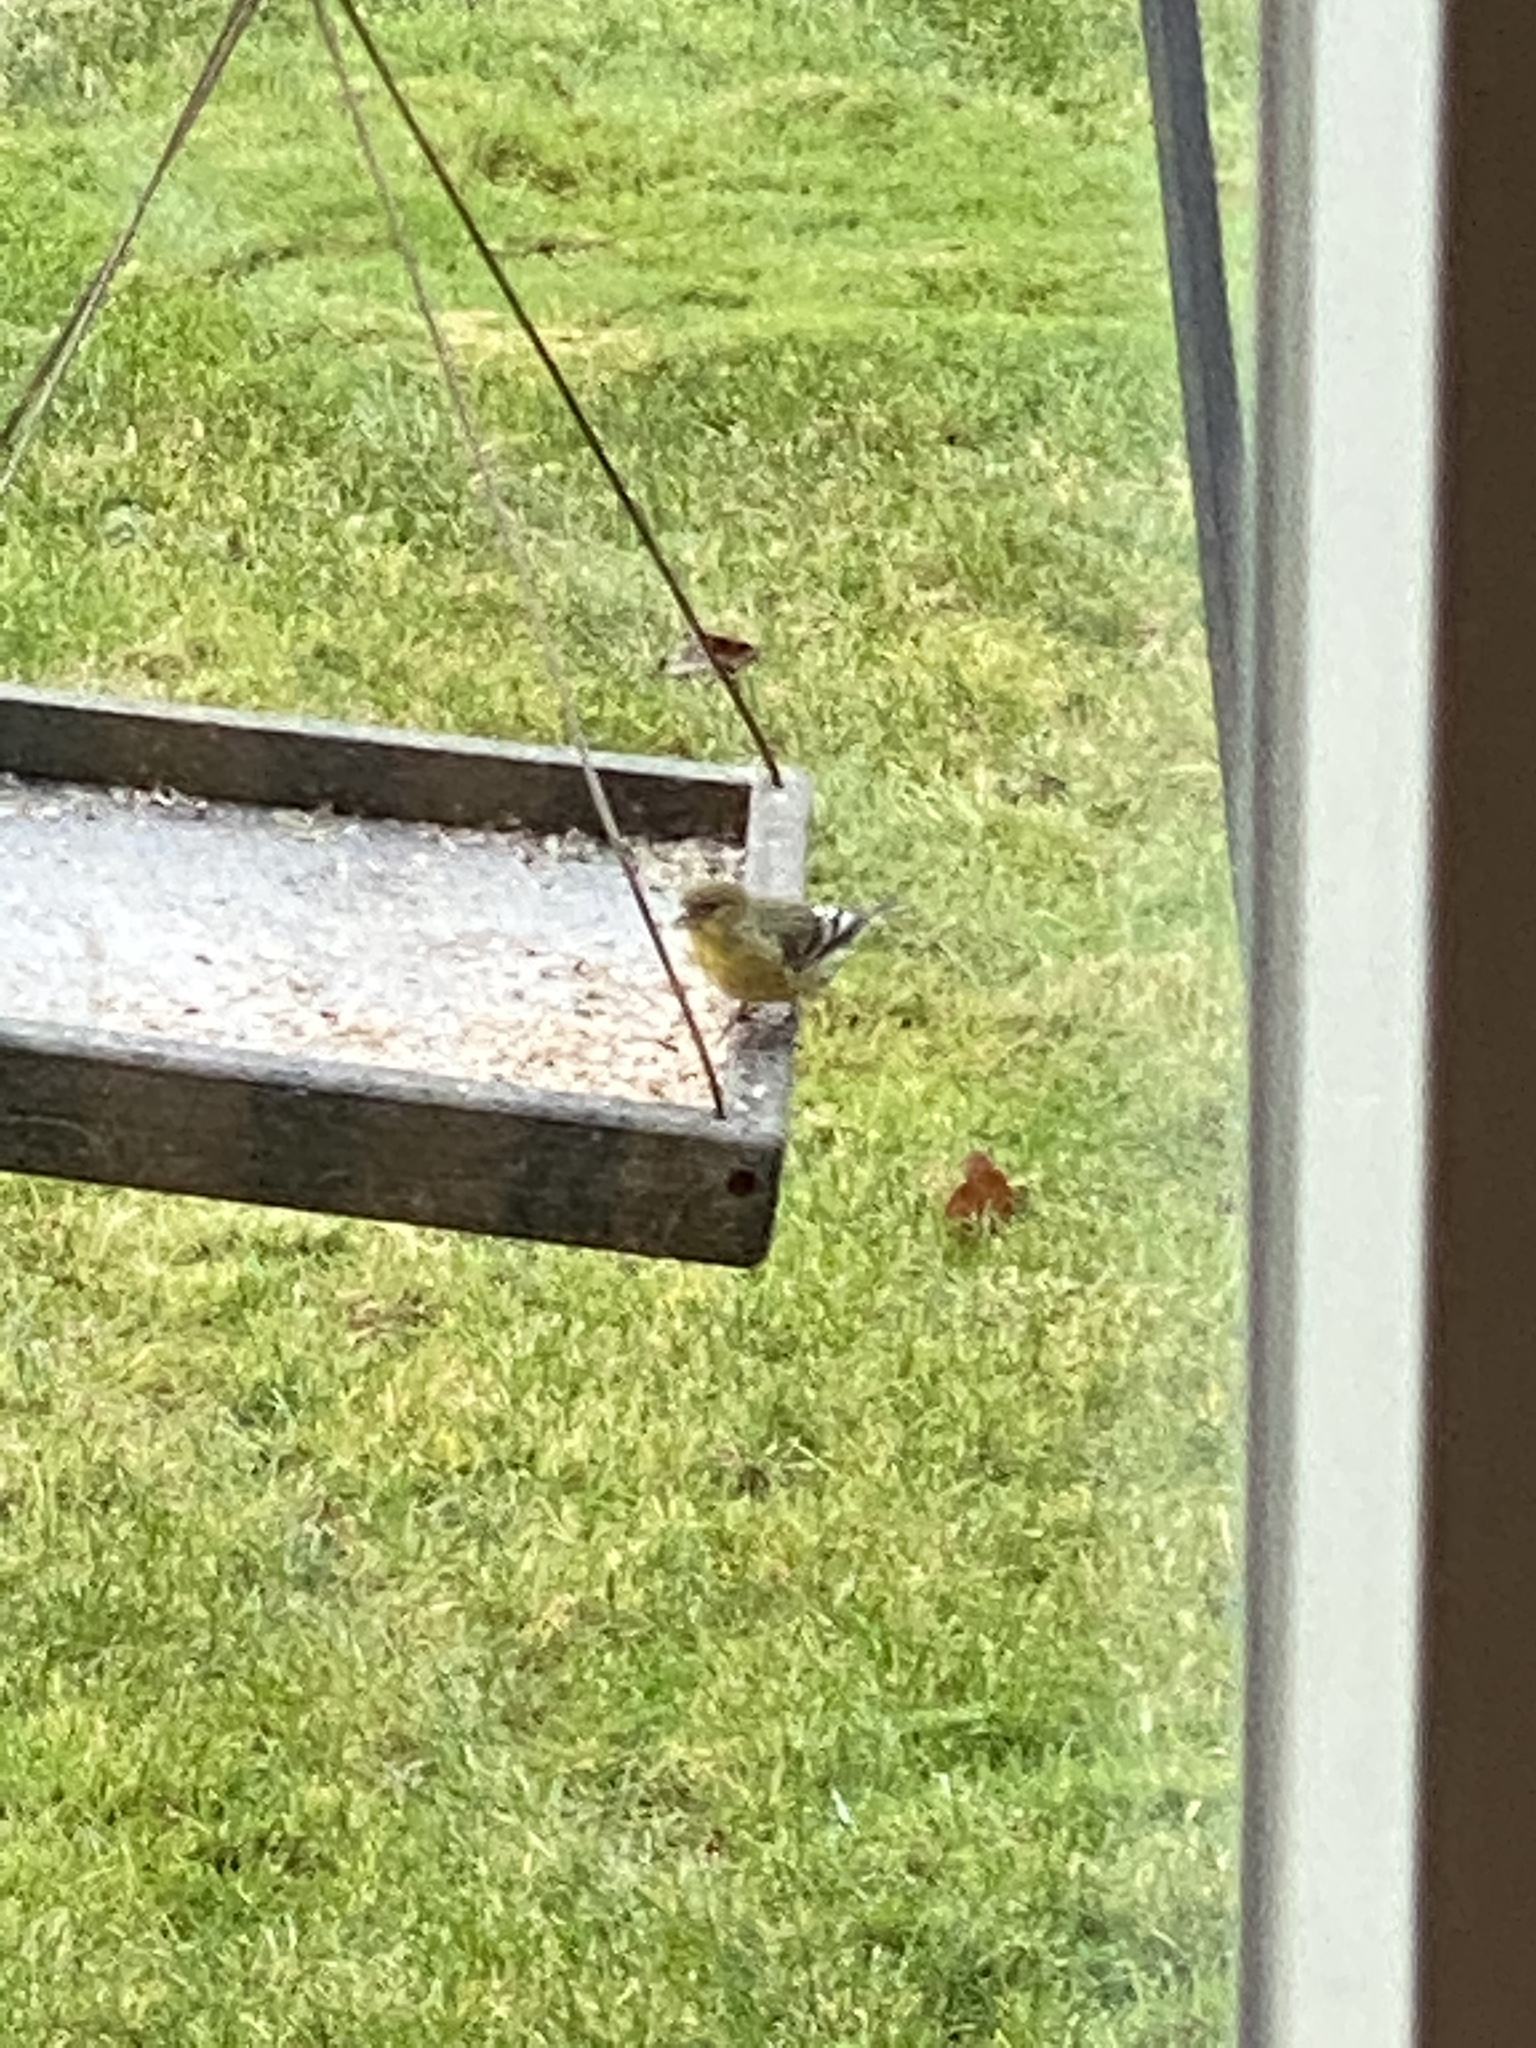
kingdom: Animalia
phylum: Chordata
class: Aves
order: Passeriformes
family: Fringillidae
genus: Spinus
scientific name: Spinus psaltria
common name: Lesser goldfinch
